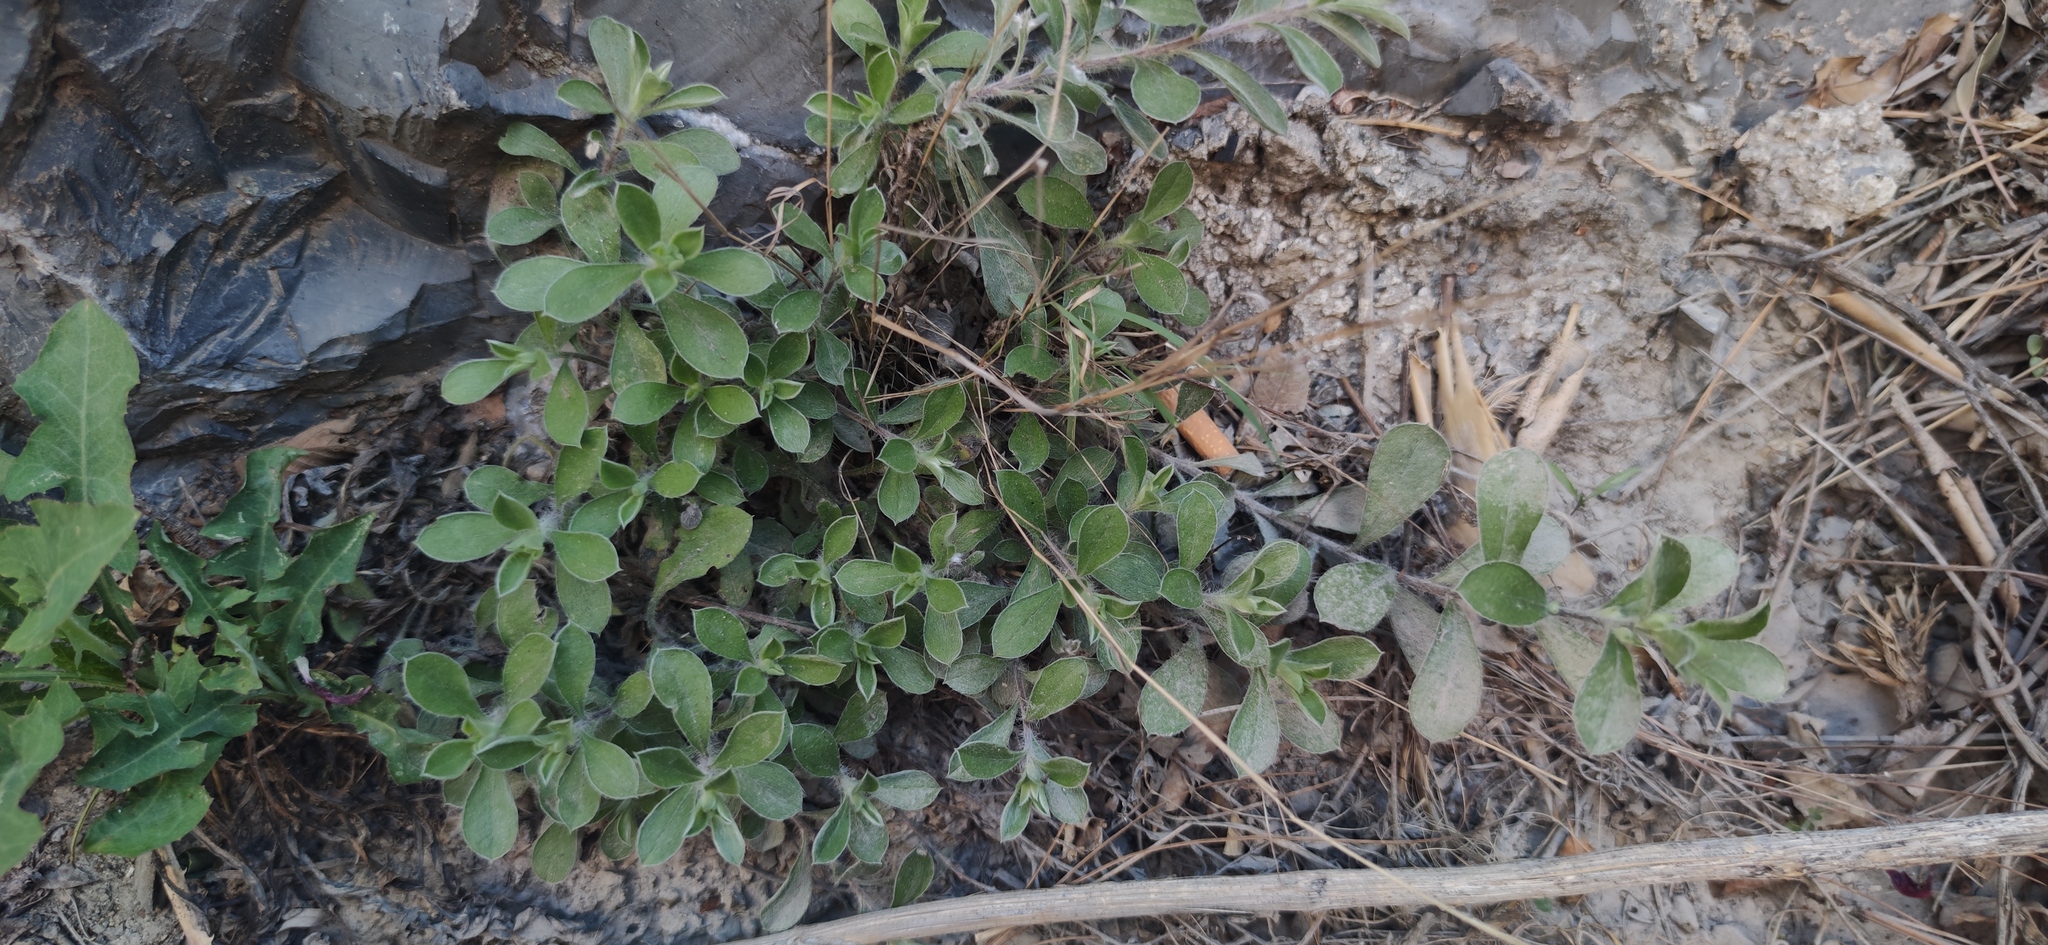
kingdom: Plantae
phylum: Tracheophyta
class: Magnoliopsida
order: Asterales
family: Asteraceae
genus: Heterotheca
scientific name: Heterotheca mucronata
